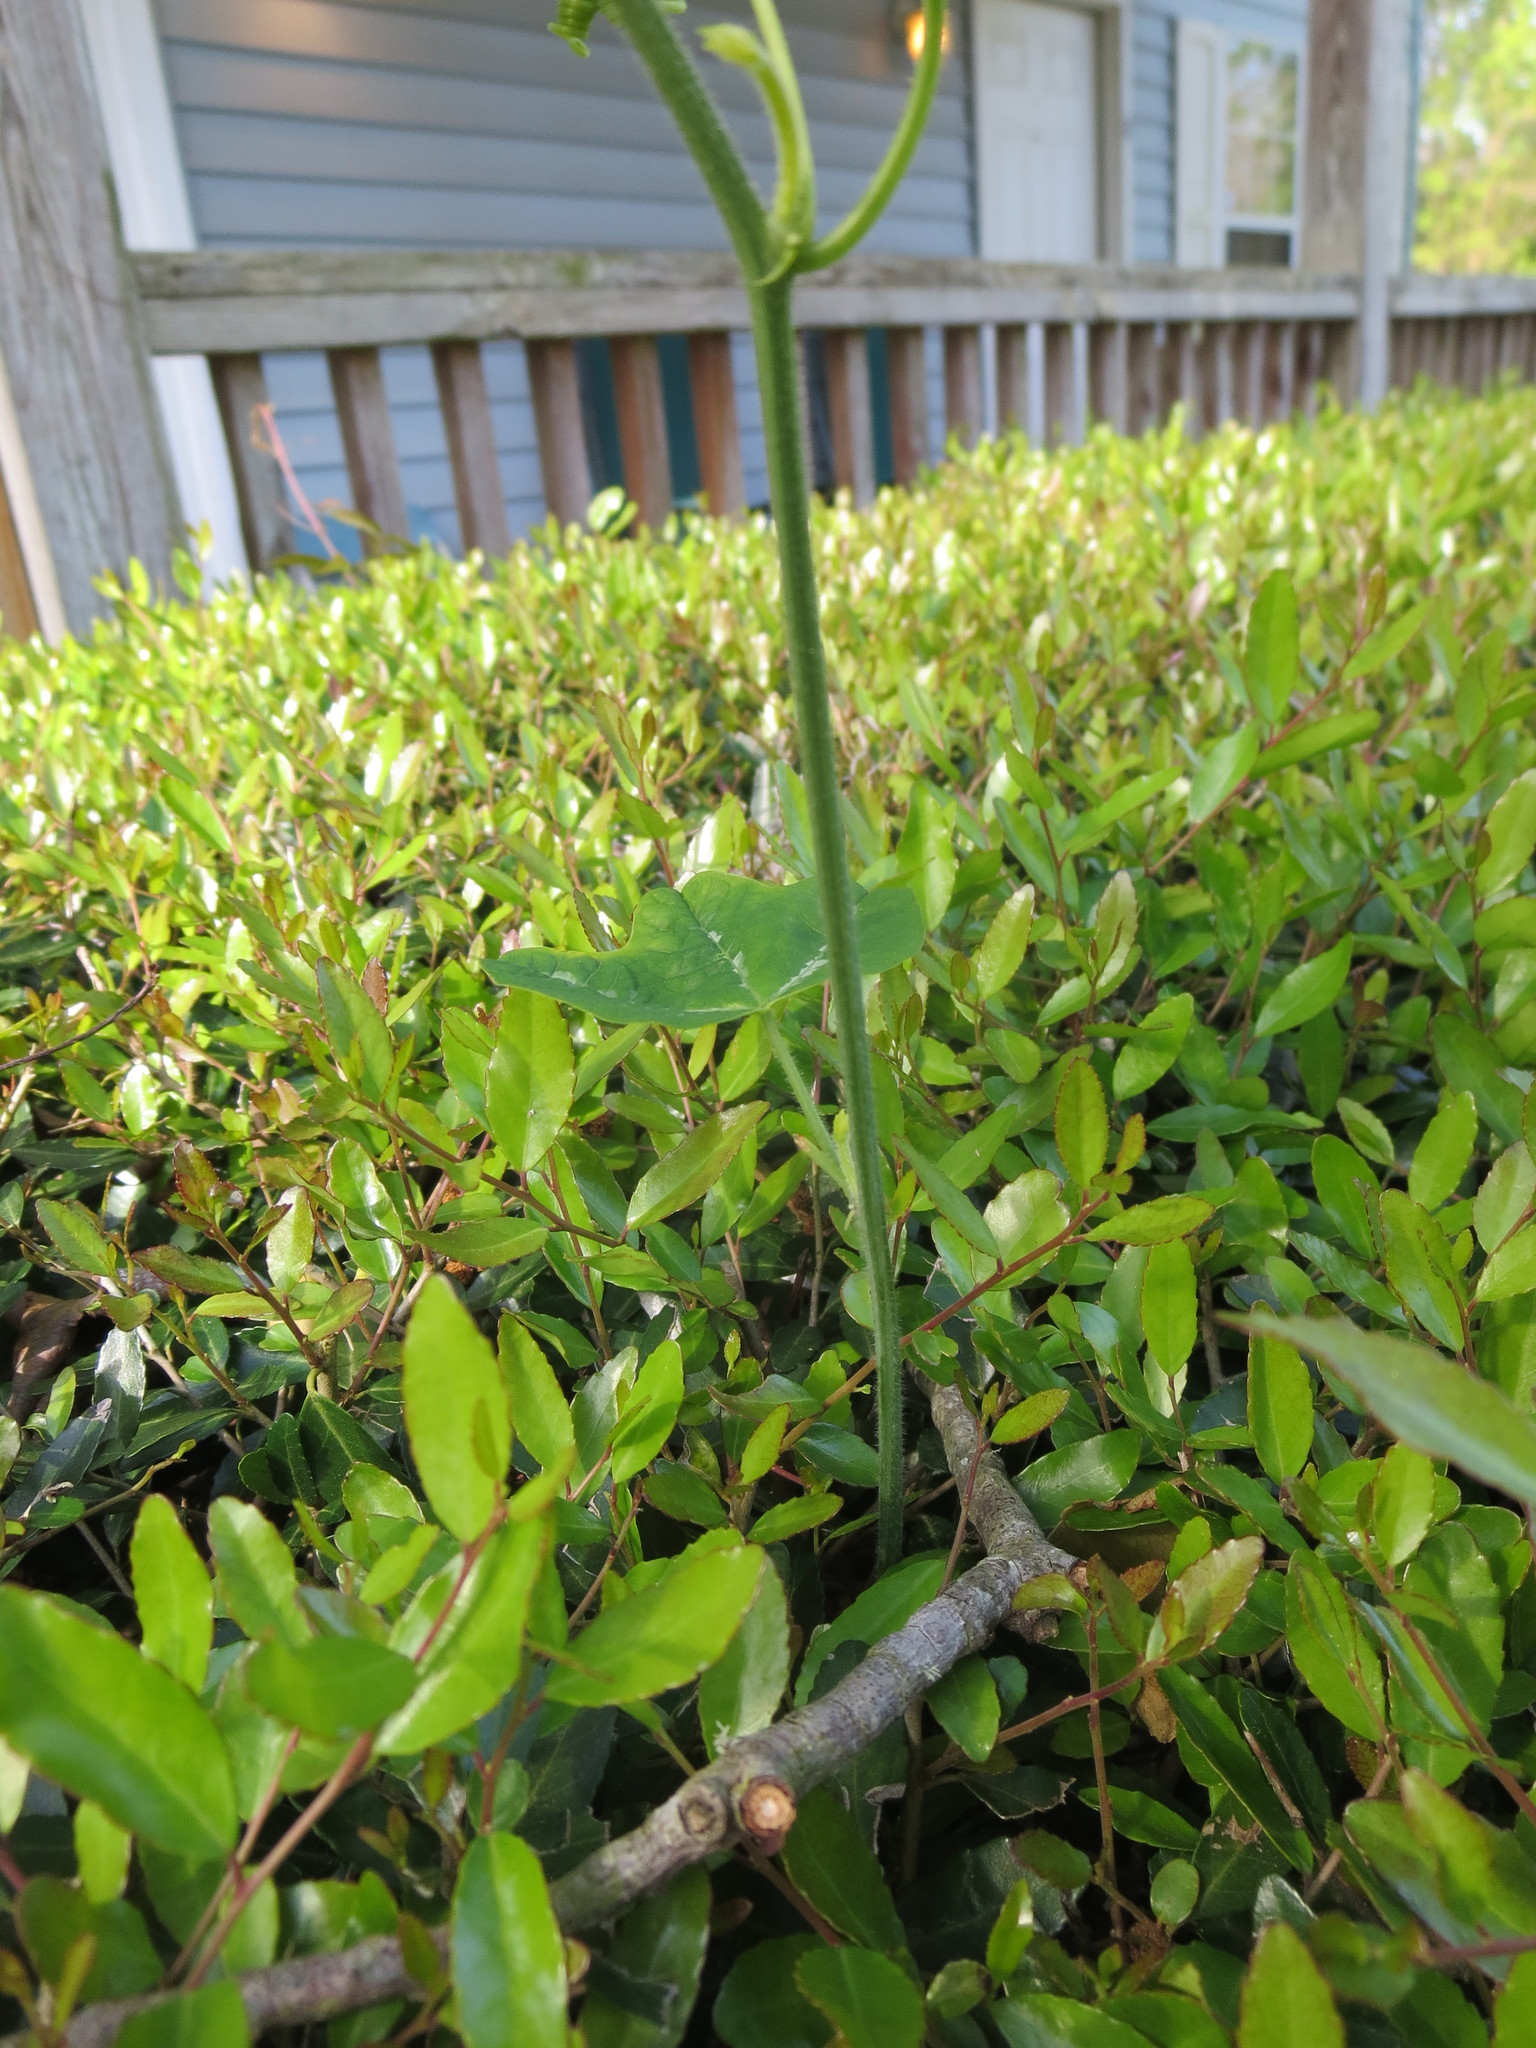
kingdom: Plantae
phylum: Tracheophyta
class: Magnoliopsida
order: Malpighiales
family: Passifloraceae
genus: Passiflora
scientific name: Passiflora lutea
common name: Yellow passionflower
